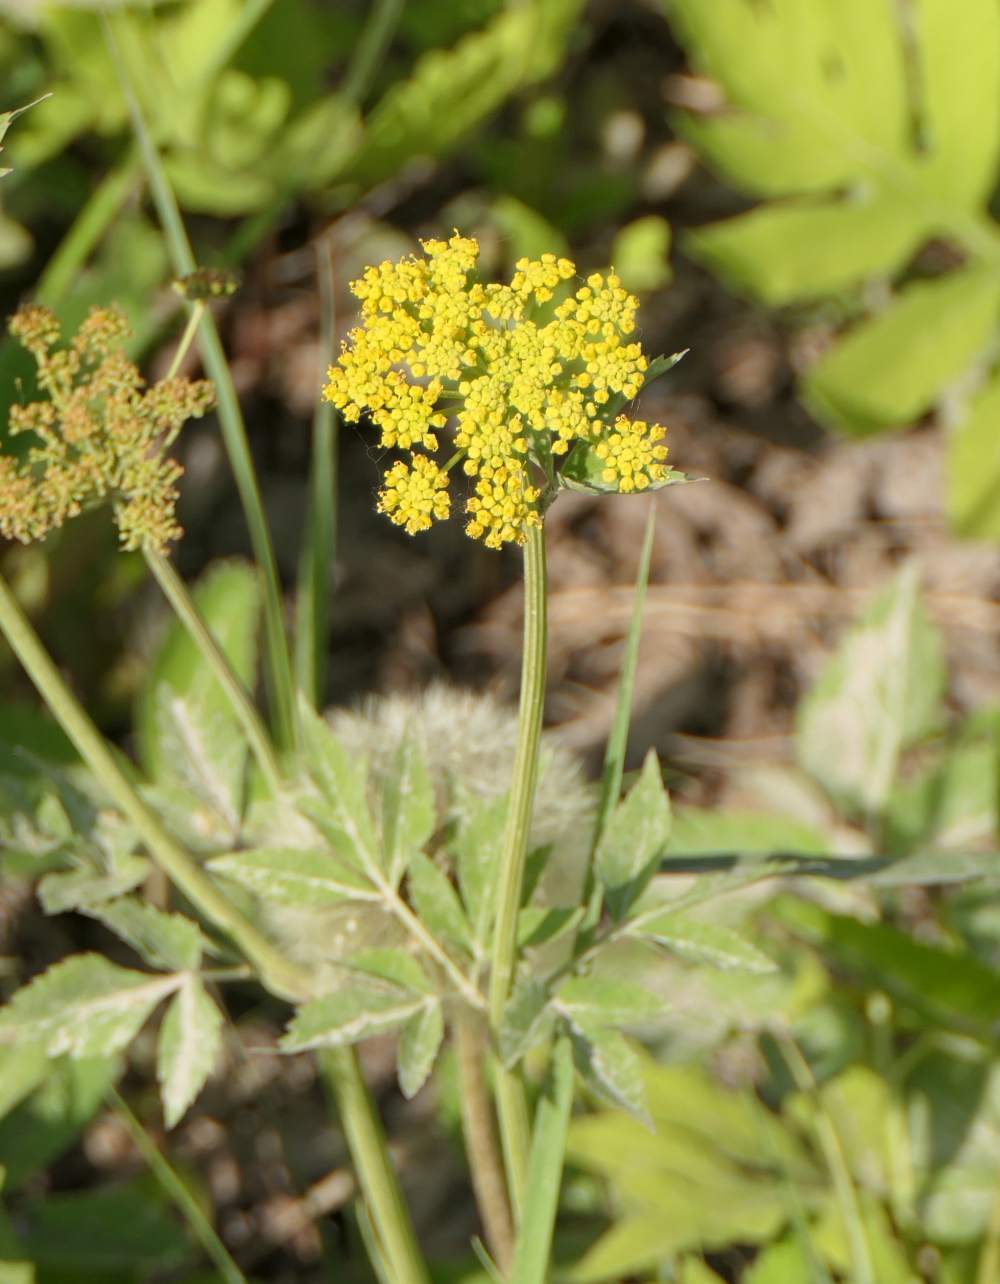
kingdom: Plantae
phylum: Tracheophyta
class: Magnoliopsida
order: Apiales
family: Apiaceae
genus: Zizia
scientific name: Zizia aurea
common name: Golden alexanders
